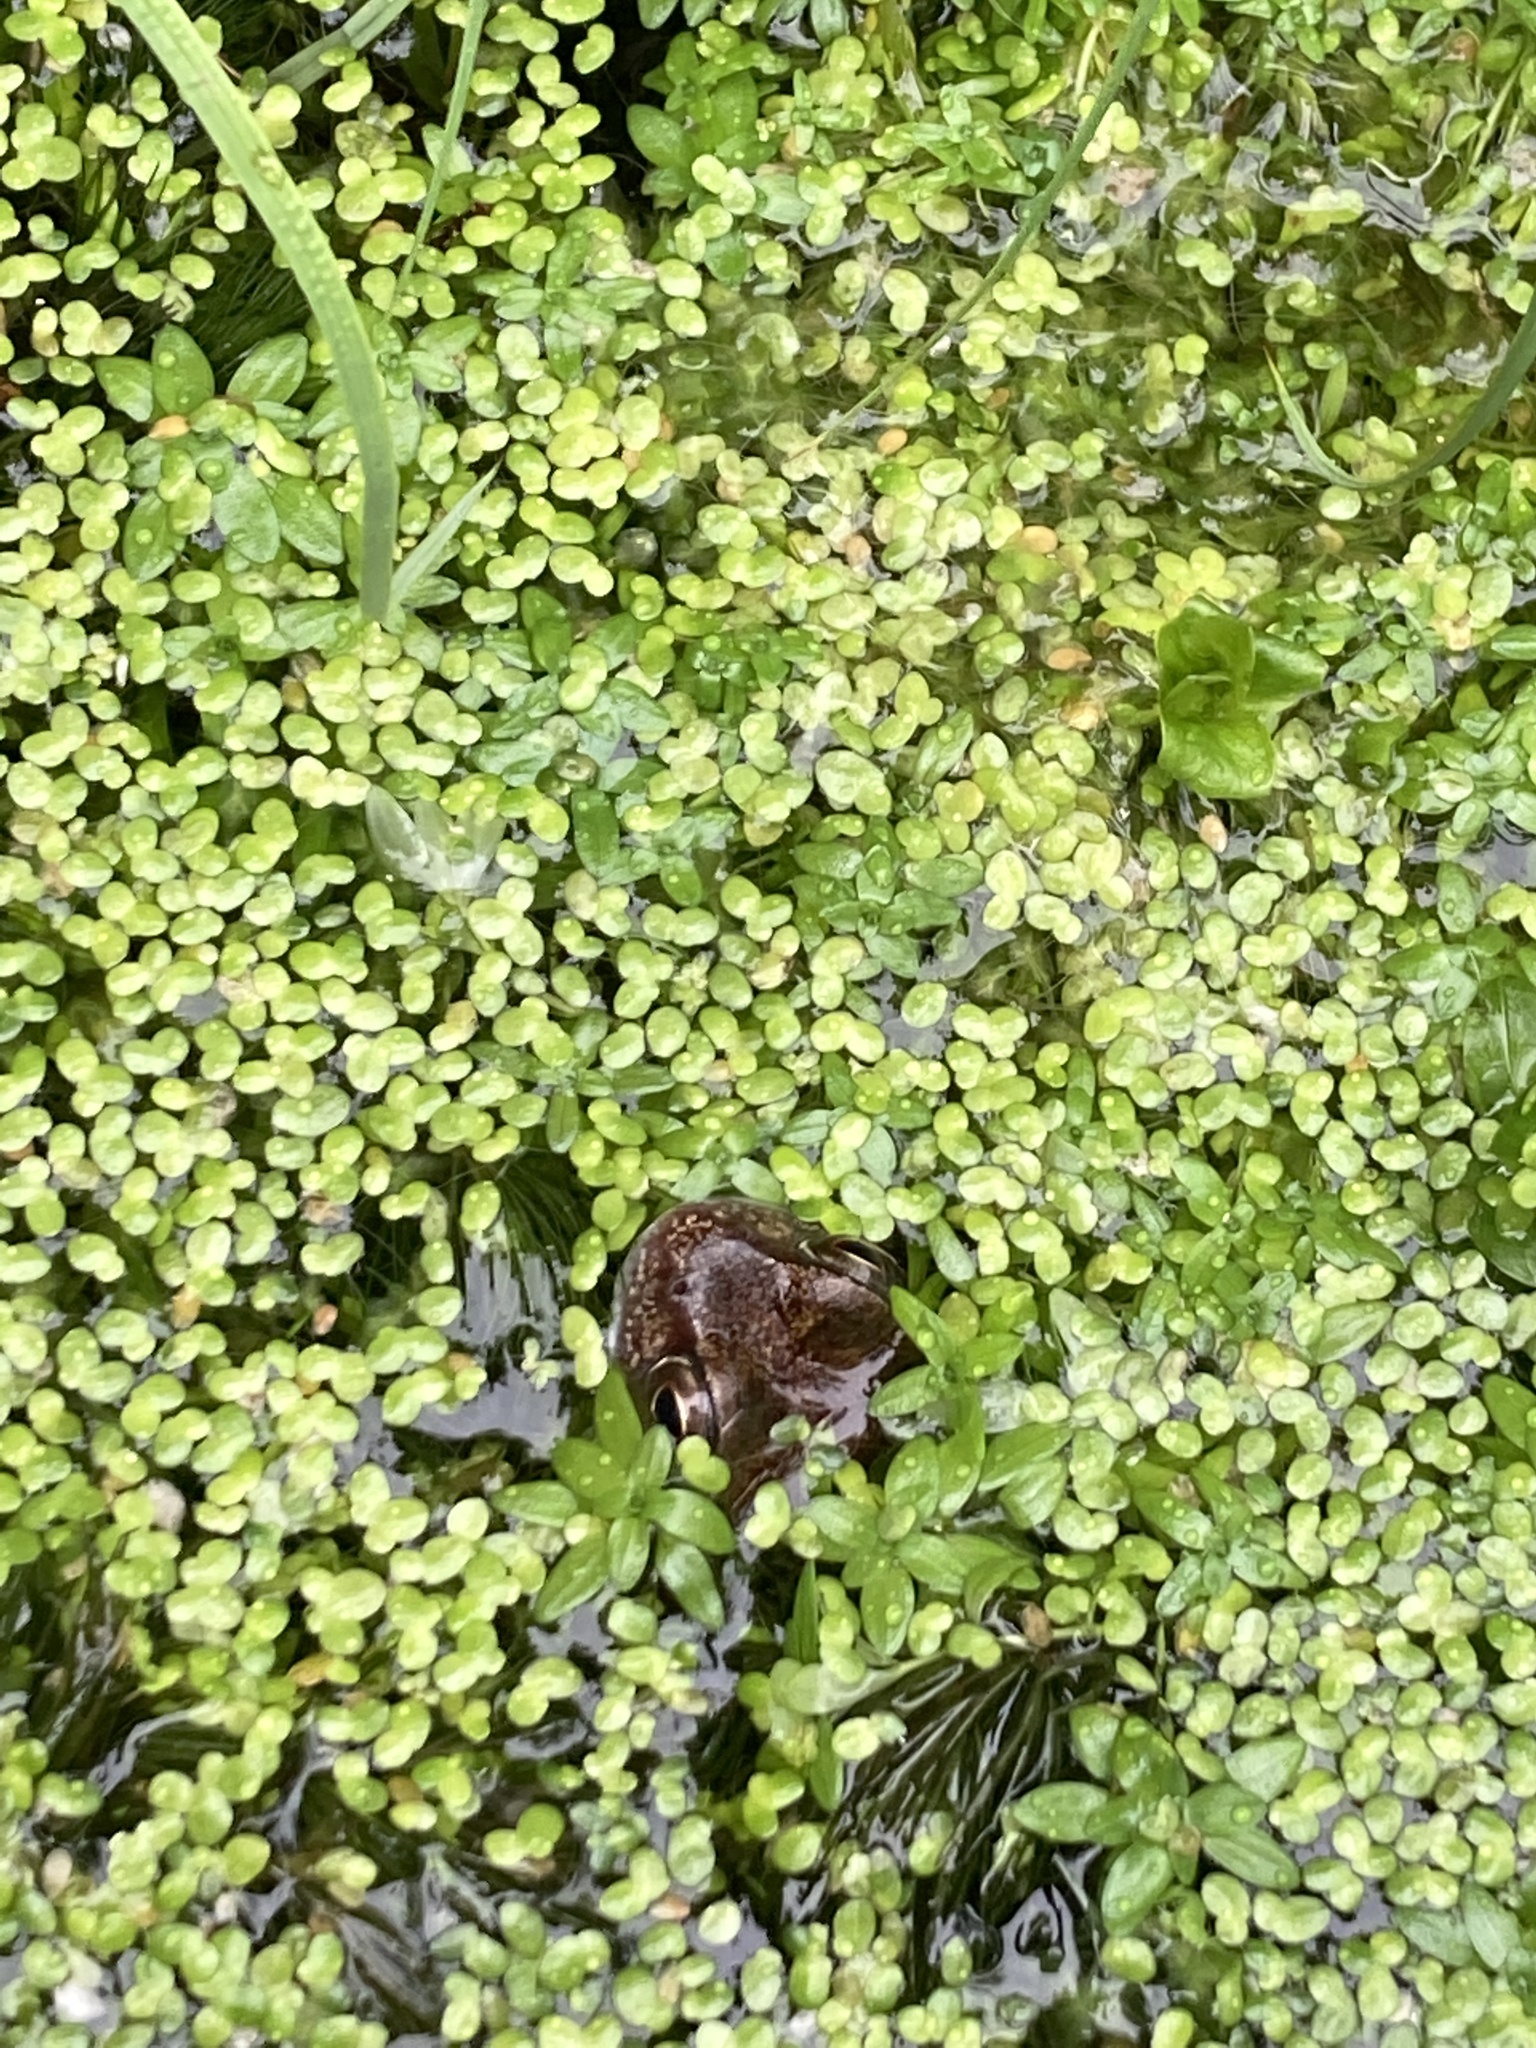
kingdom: Animalia
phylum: Chordata
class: Amphibia
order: Anura
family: Ranidae
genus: Rana
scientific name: Rana temporaria
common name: Common frog
